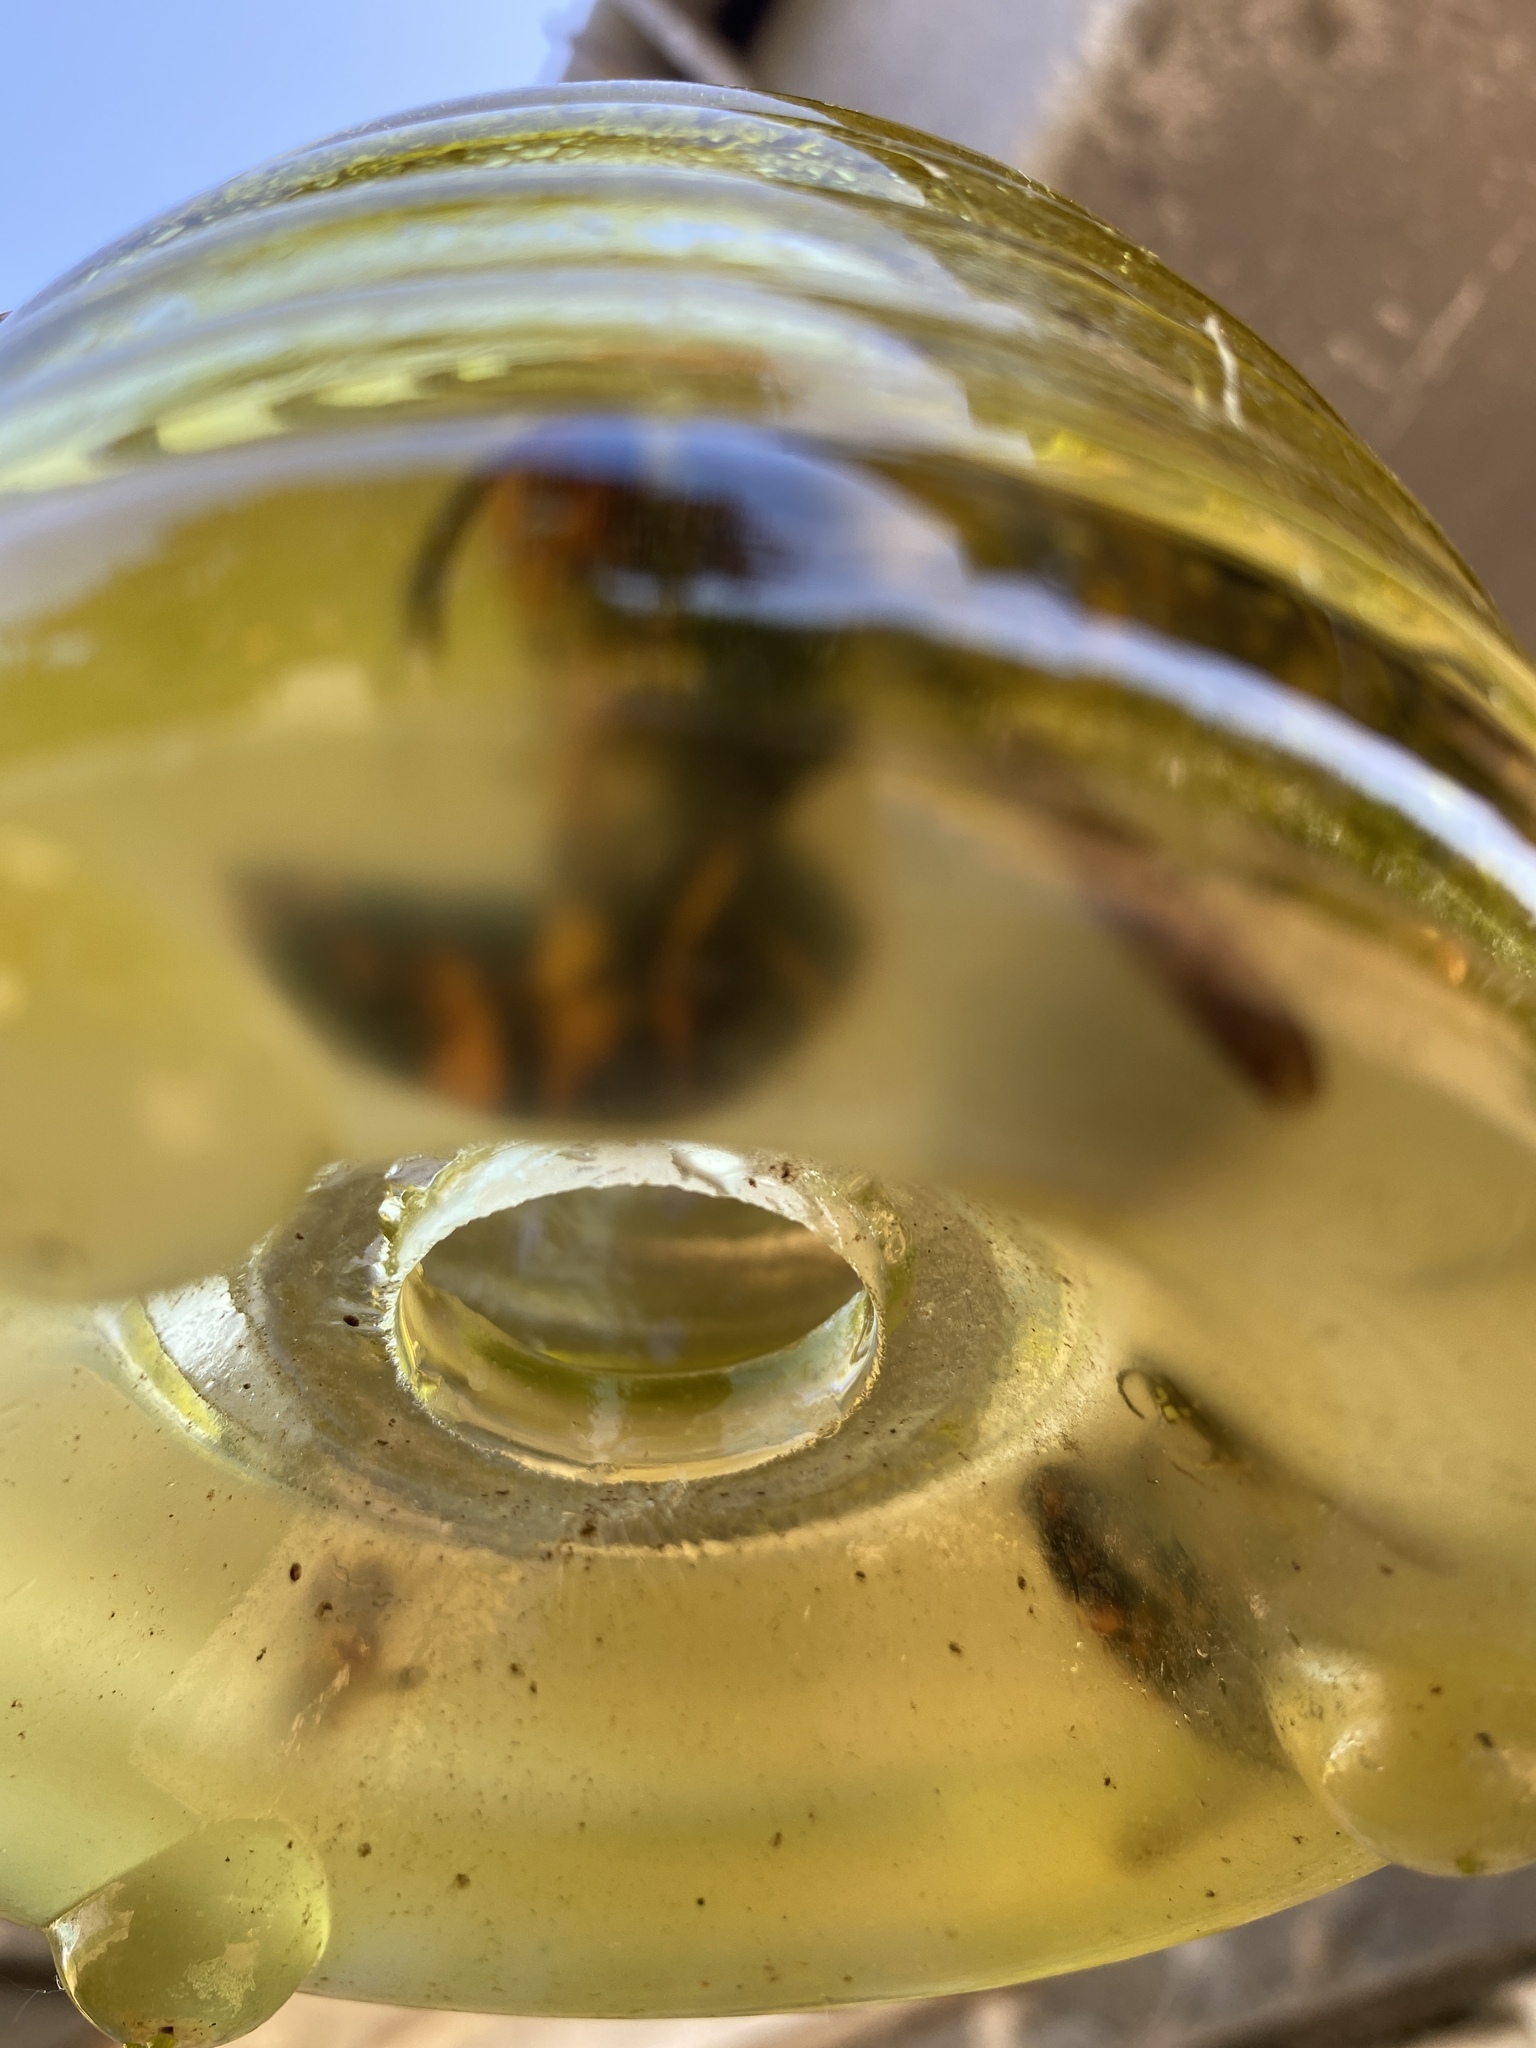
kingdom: Animalia
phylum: Arthropoda
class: Insecta
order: Hymenoptera
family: Vespidae
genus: Vespa
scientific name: Vespa velutina
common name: Asian hornet
